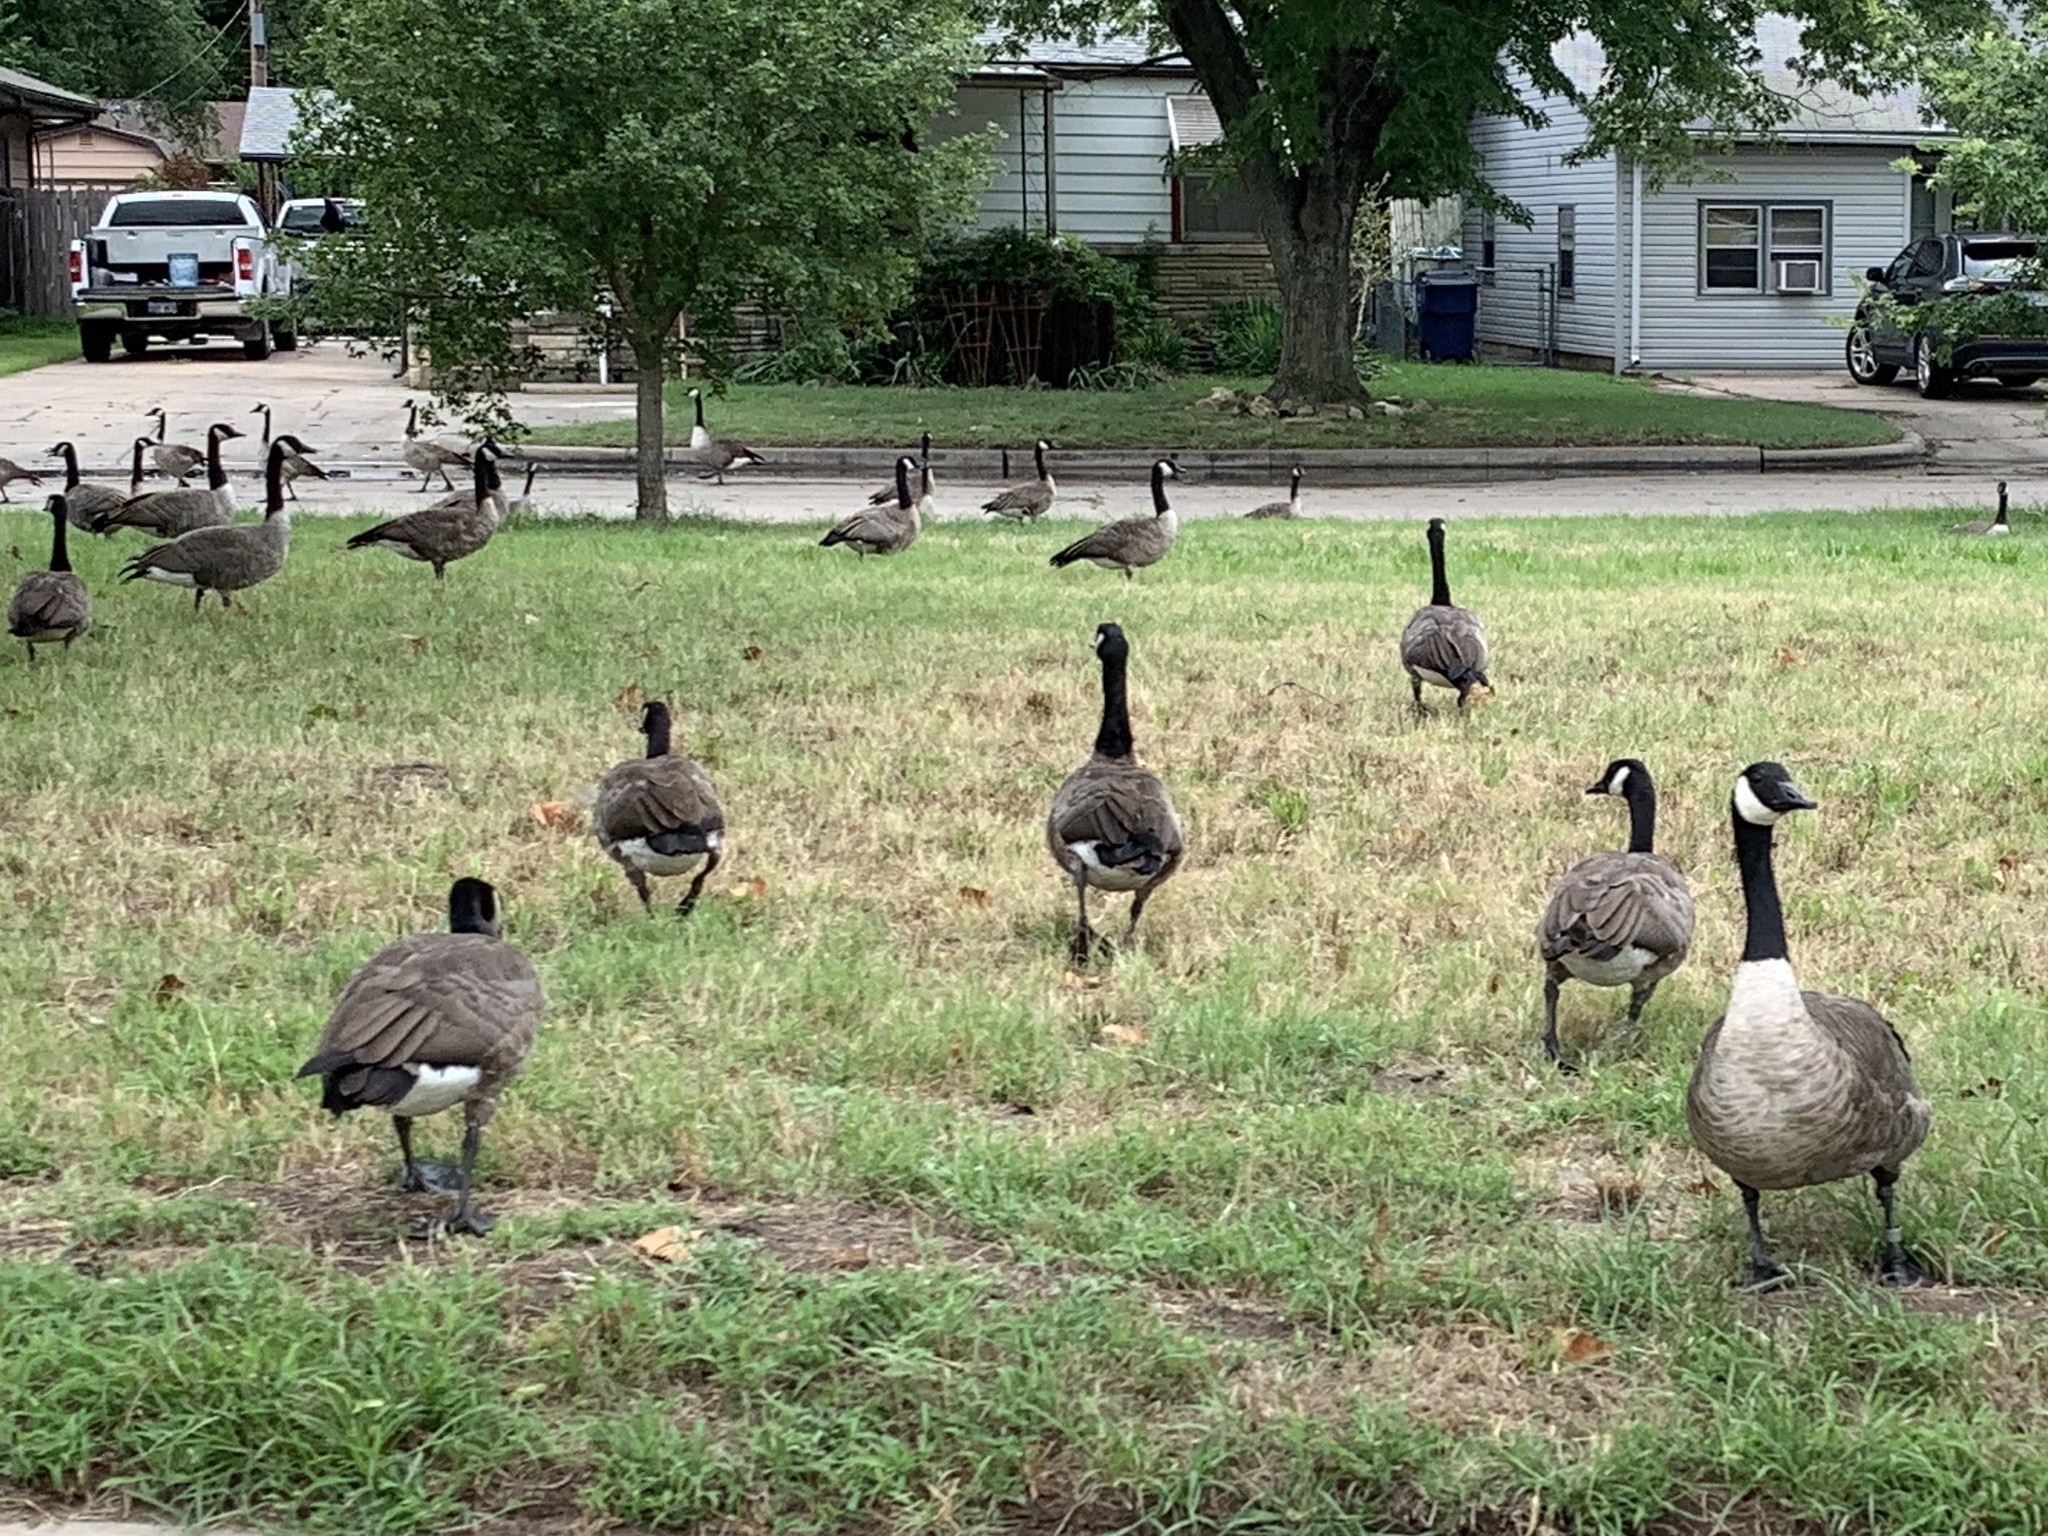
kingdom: Animalia
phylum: Chordata
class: Aves
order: Anseriformes
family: Anatidae
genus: Branta
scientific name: Branta canadensis
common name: Canada goose
